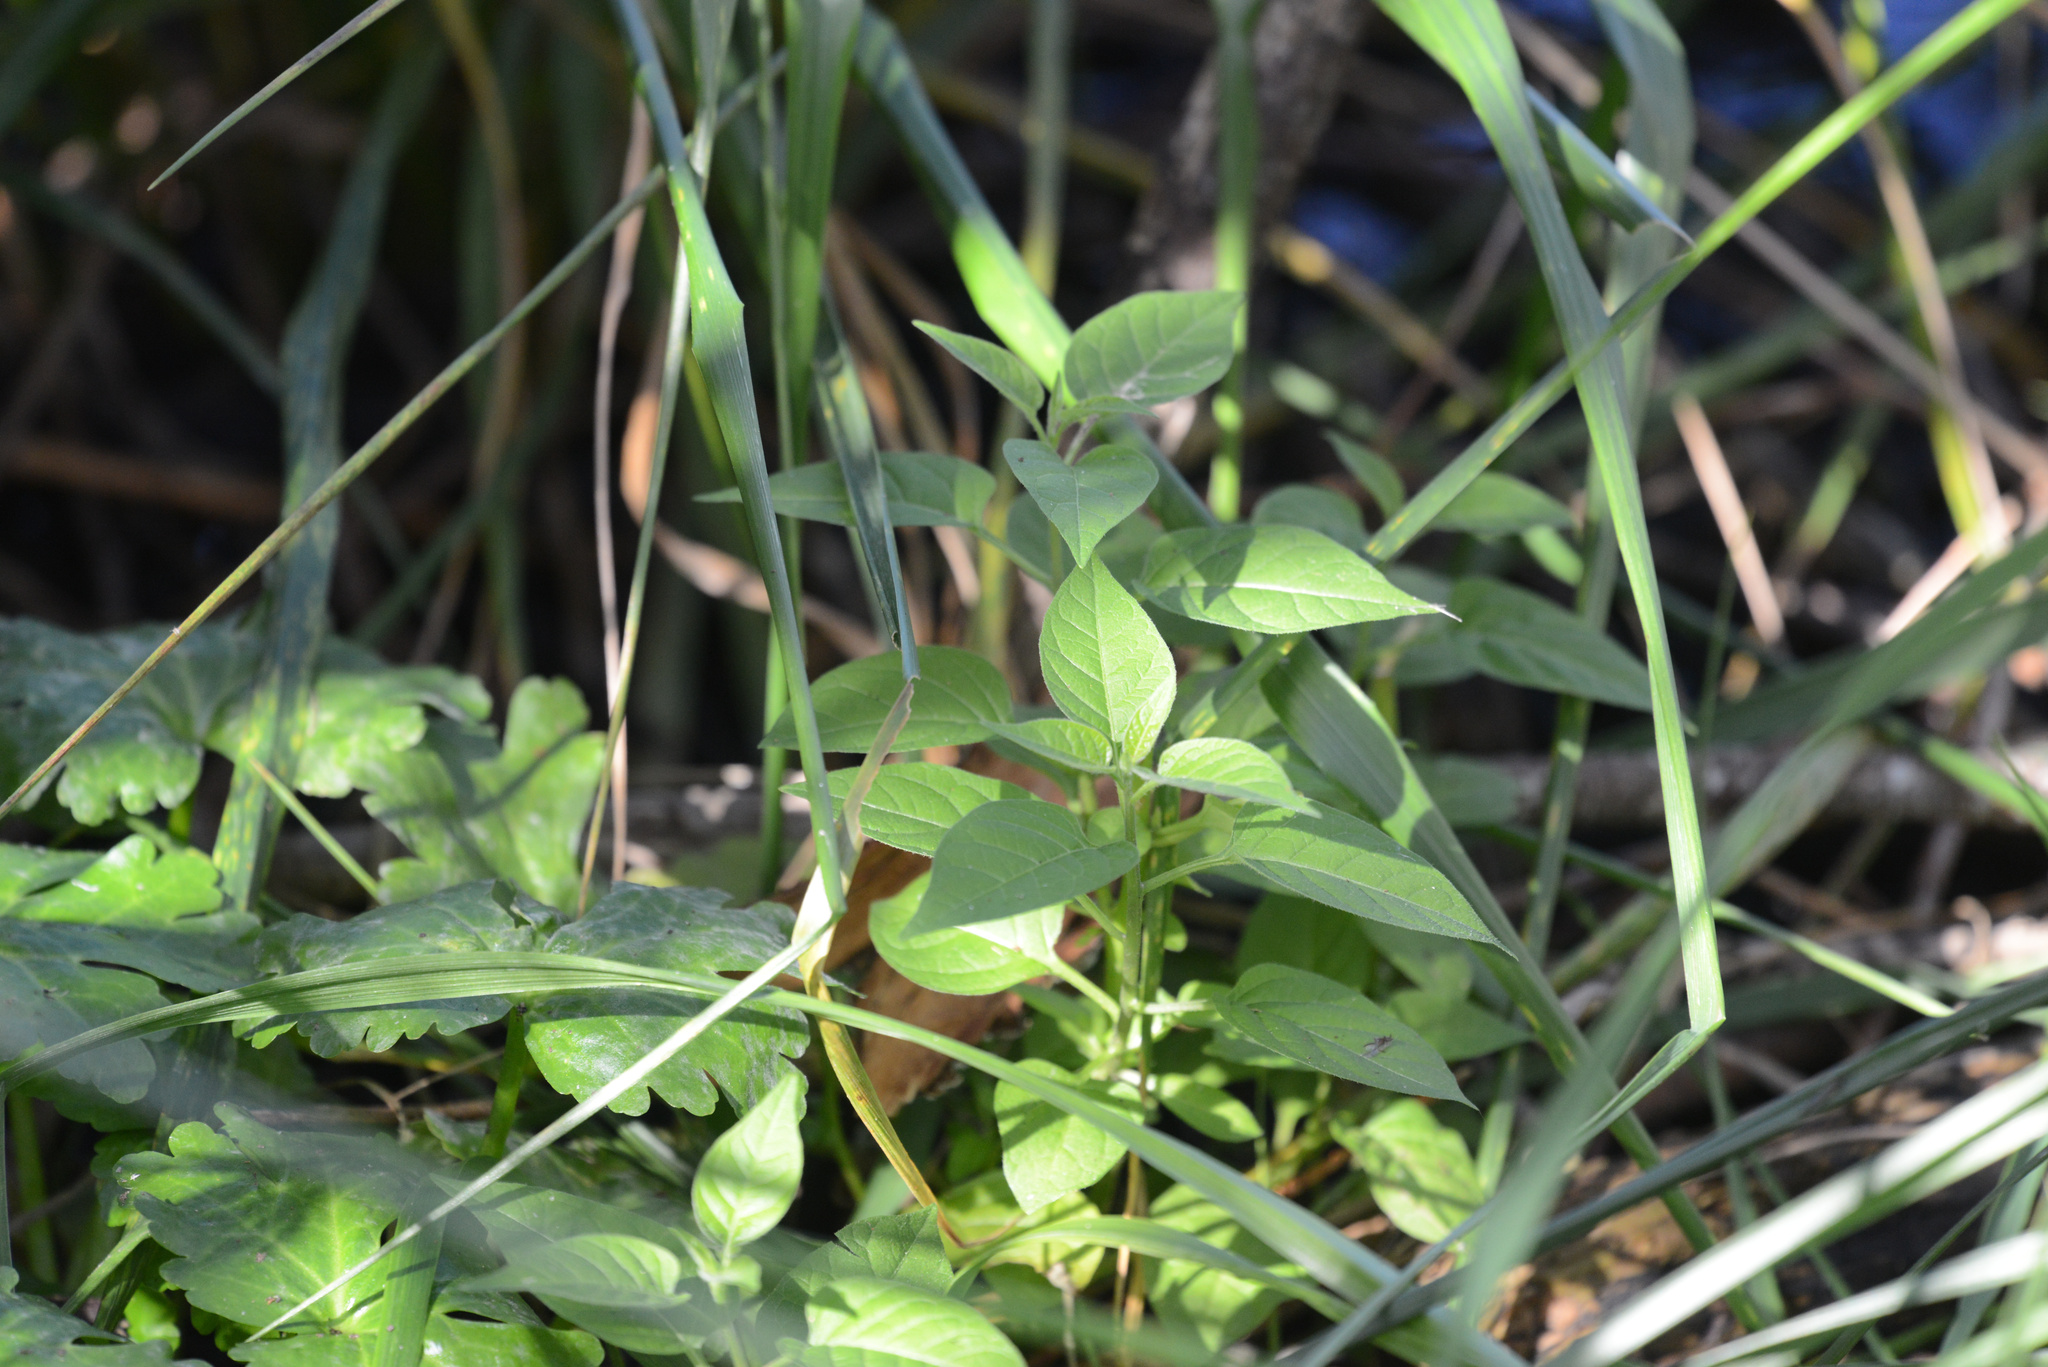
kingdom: Plantae
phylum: Tracheophyta
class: Magnoliopsida
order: Solanales
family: Solanaceae
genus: Solanum
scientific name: Solanum dulcamara
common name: Climbing nightshade
